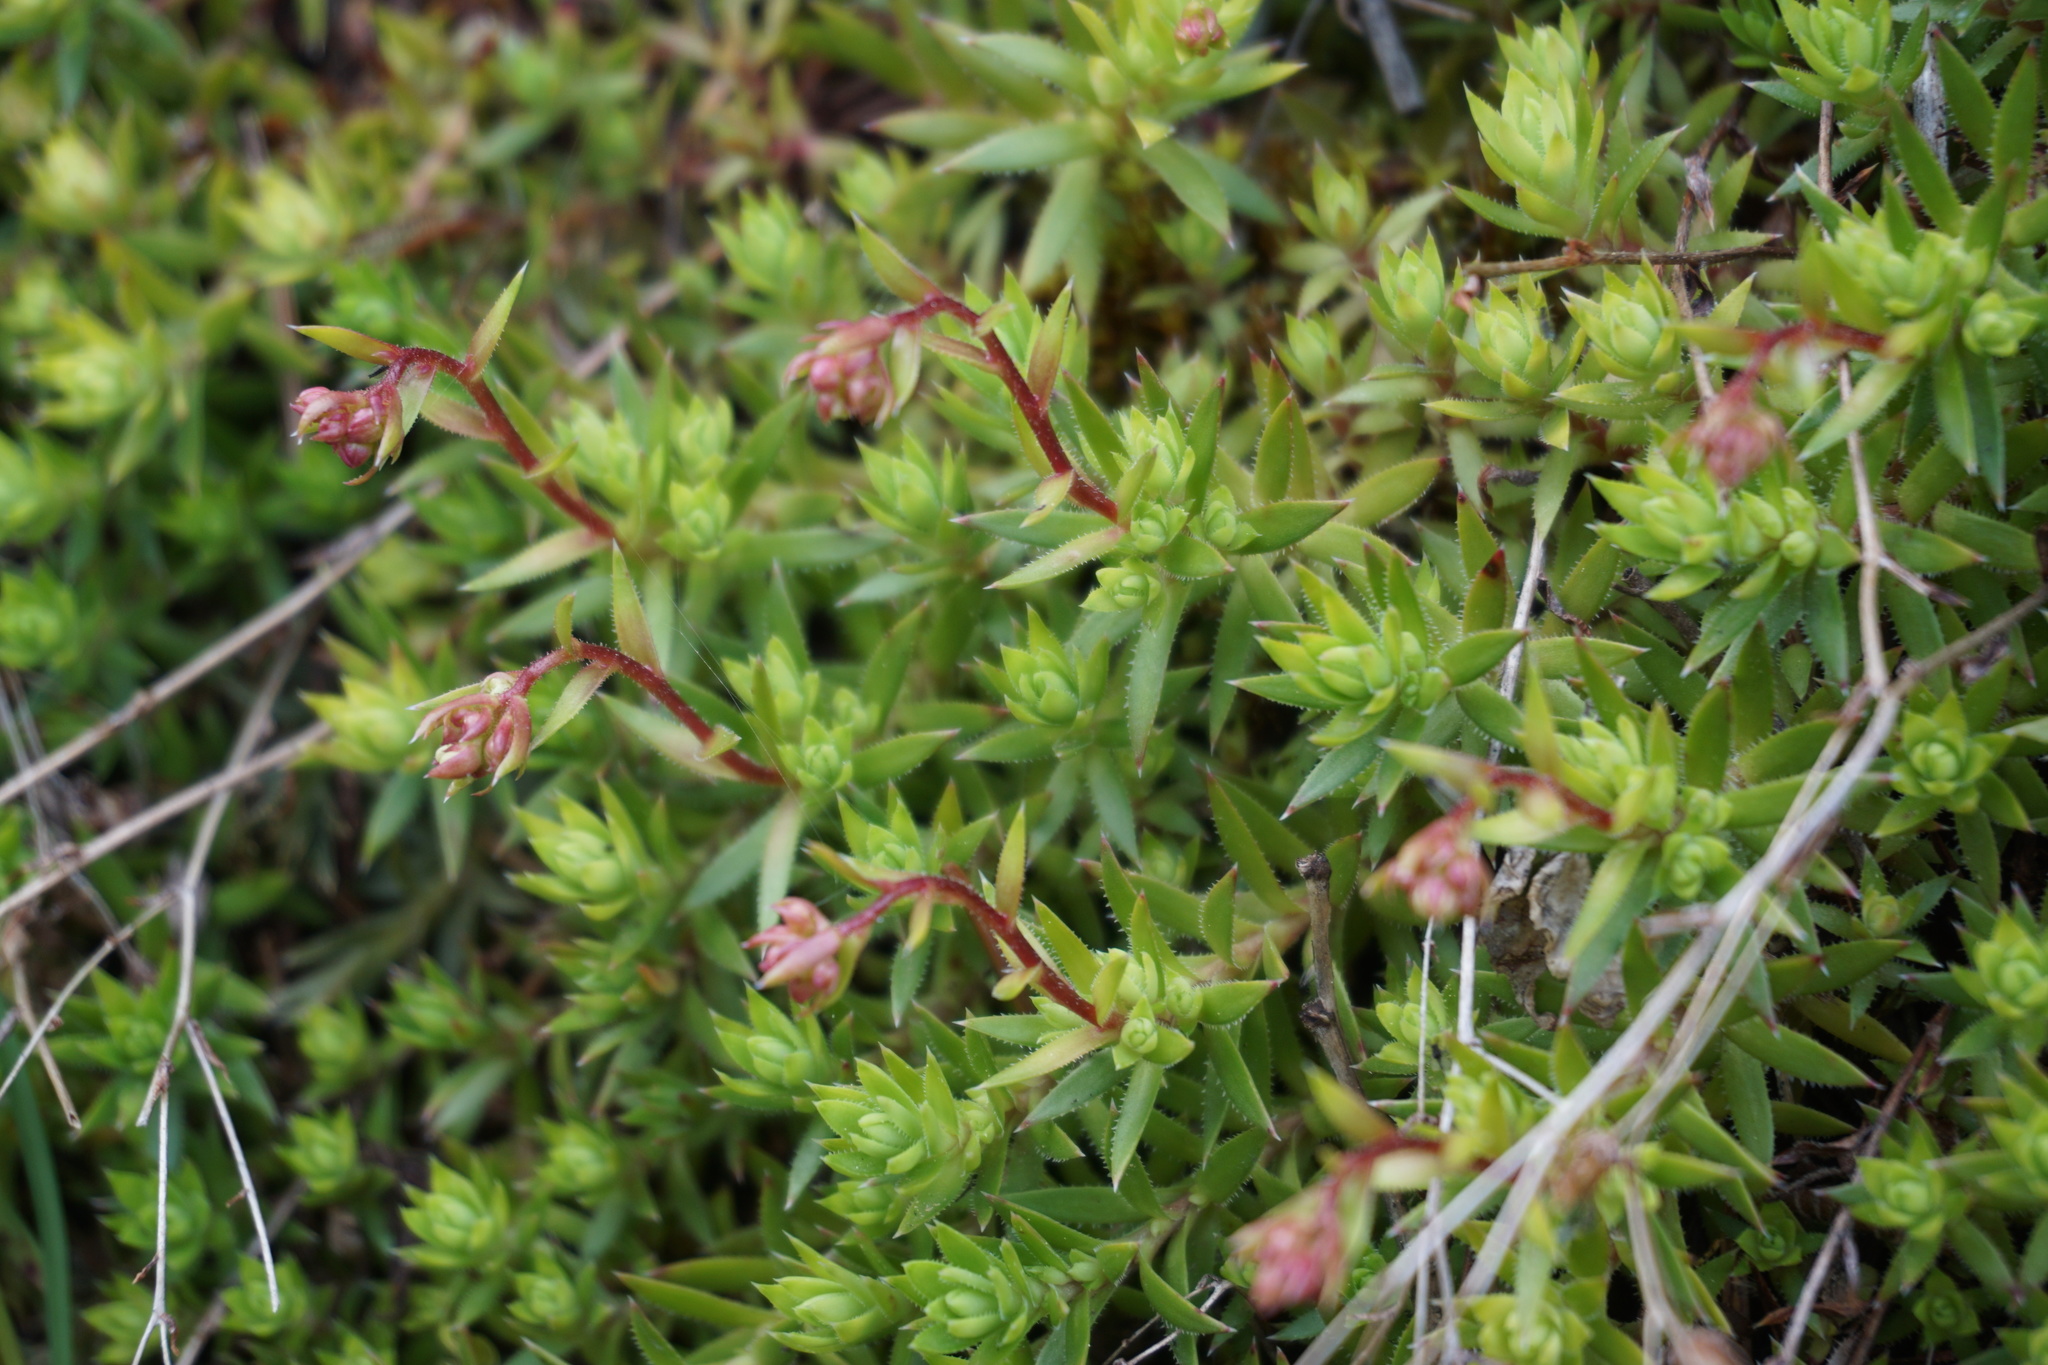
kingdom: Plantae
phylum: Tracheophyta
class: Magnoliopsida
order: Saxifragales
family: Saxifragaceae
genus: Saxifraga
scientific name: Saxifraga bronchialis
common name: Matted saxifrage
